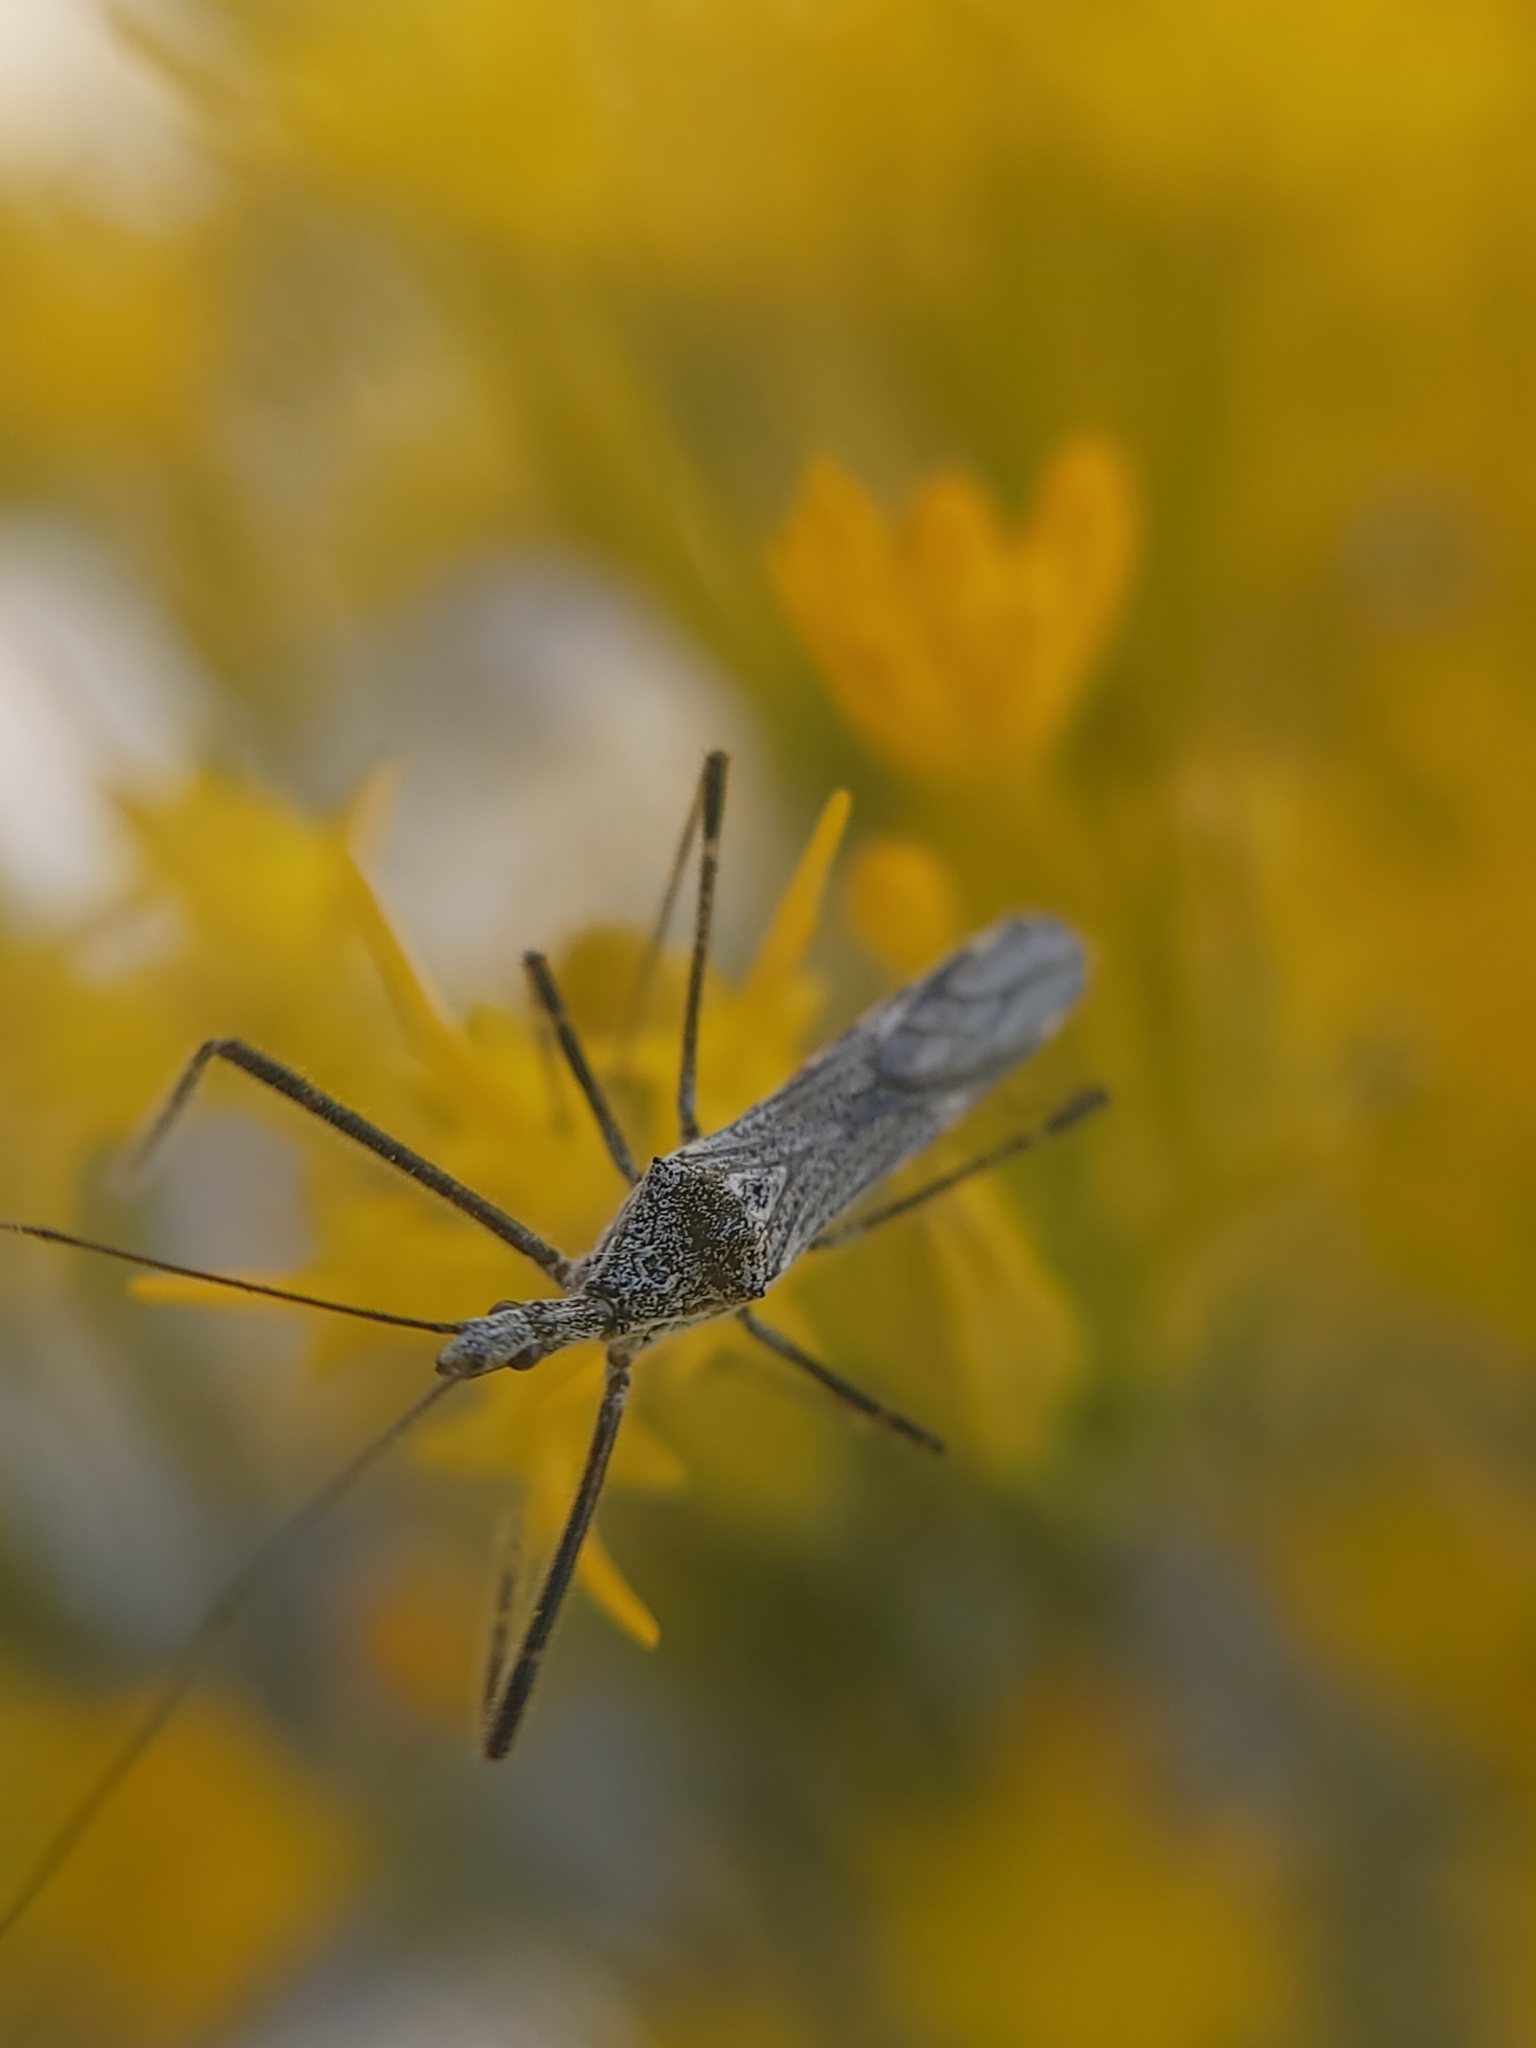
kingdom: Animalia
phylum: Arthropoda
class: Insecta
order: Hemiptera
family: Reduviidae
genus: Zelus
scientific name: Zelus tetracanthus
